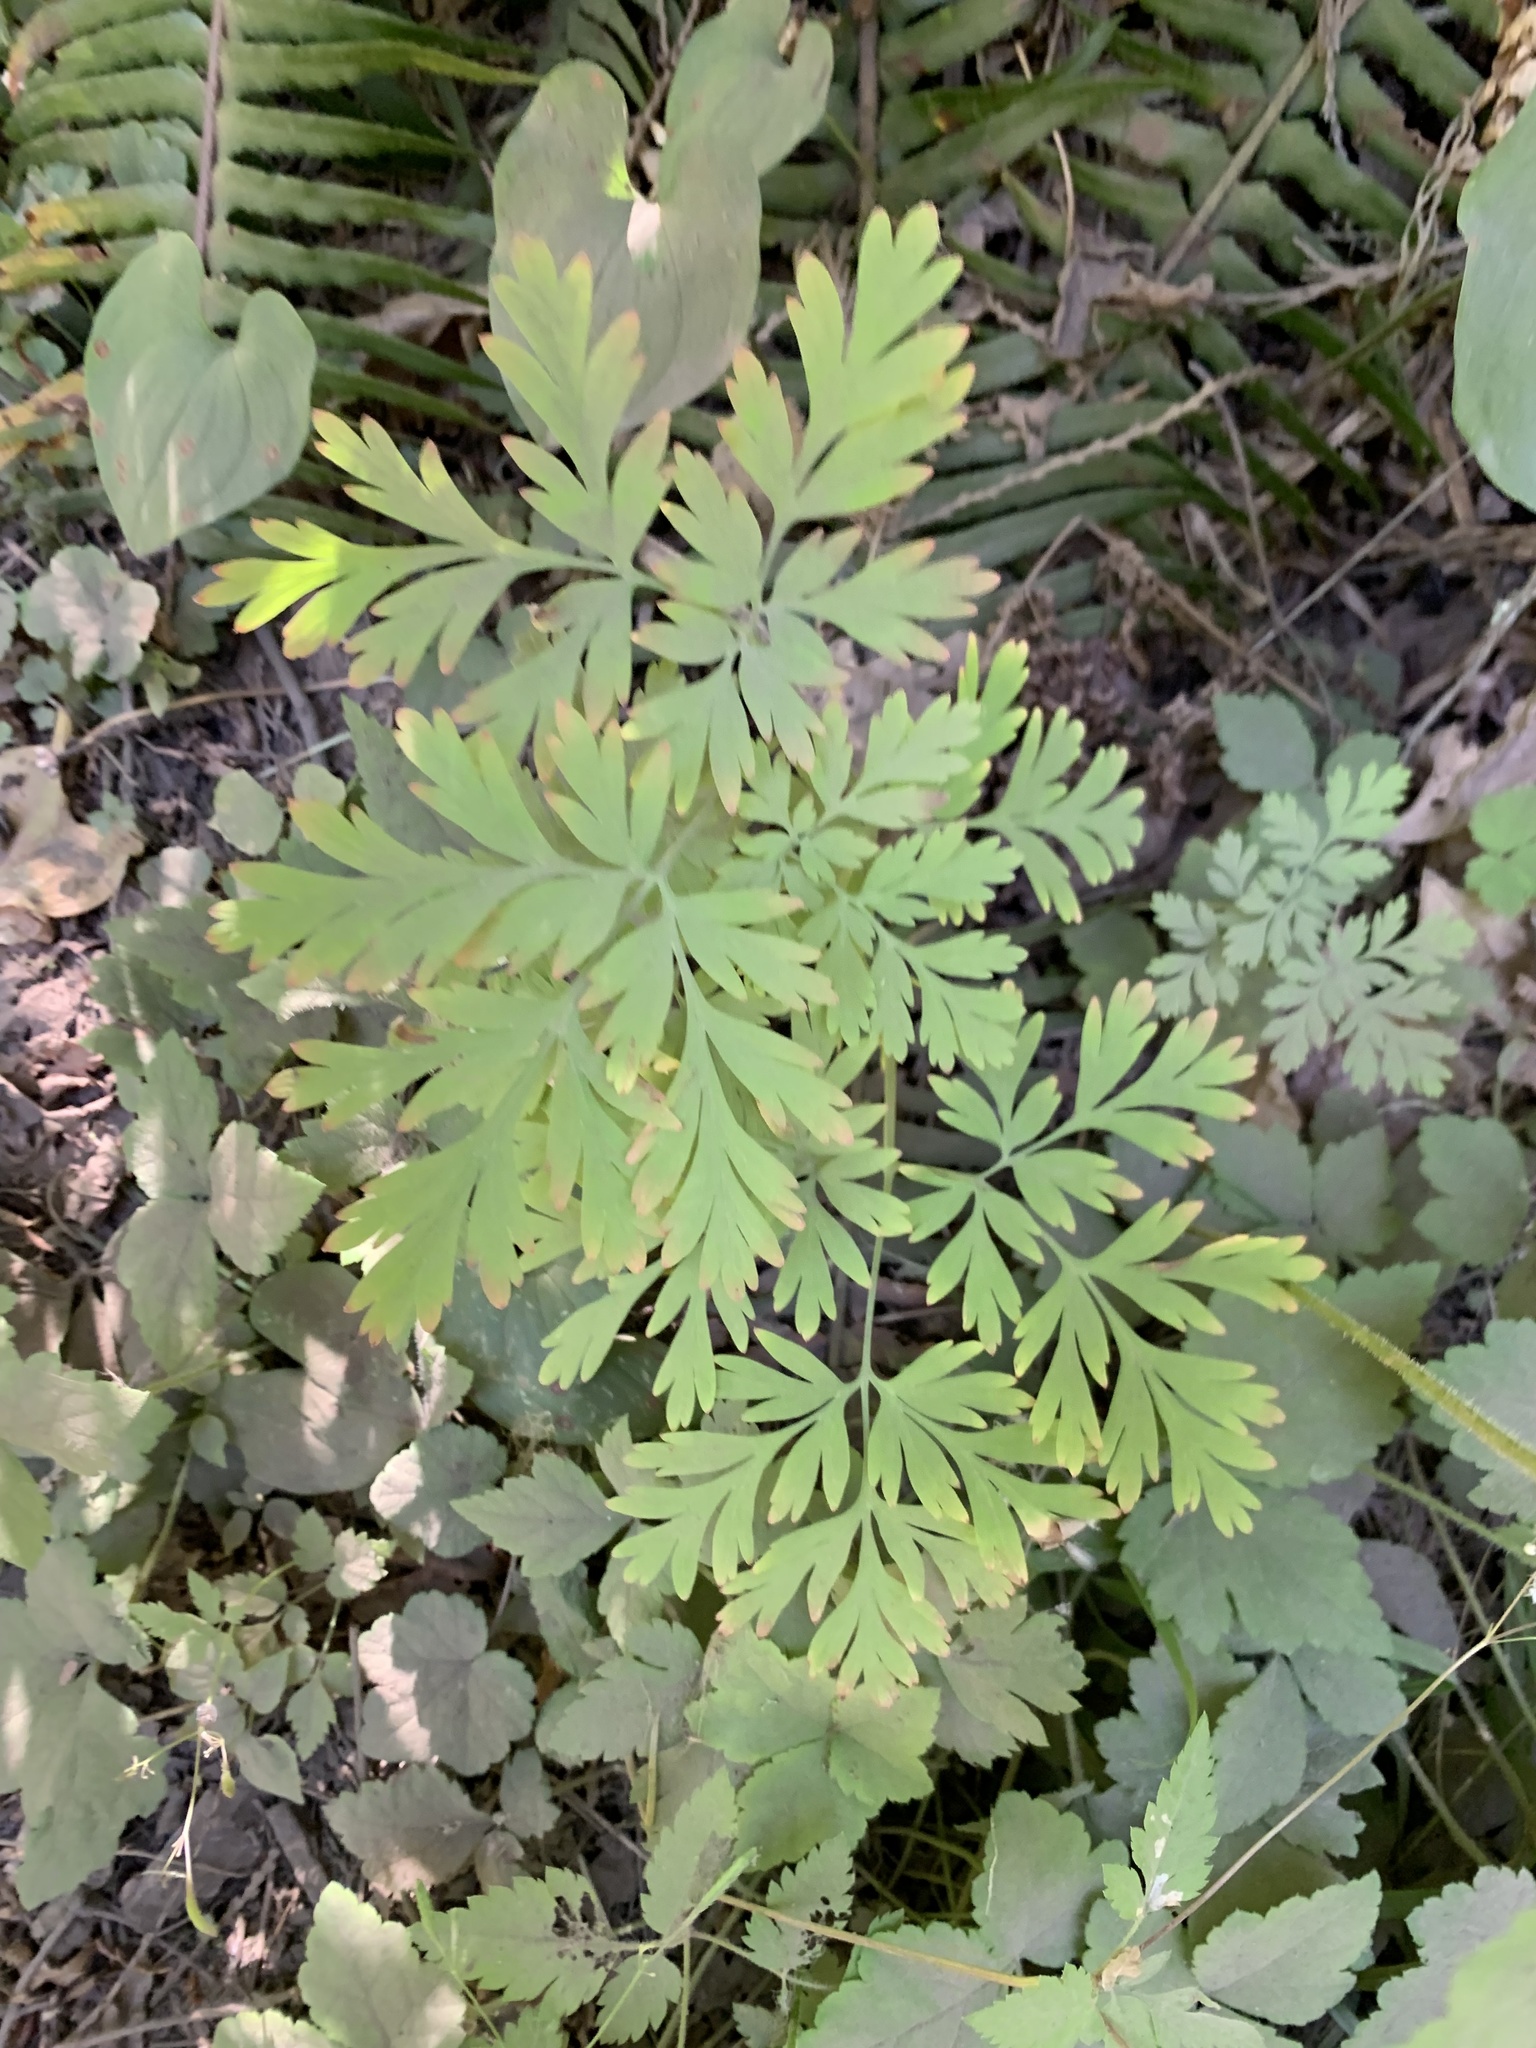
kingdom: Plantae
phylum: Tracheophyta
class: Magnoliopsida
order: Ranunculales
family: Papaveraceae
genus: Dicentra
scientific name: Dicentra formosa
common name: Bleeding-heart
